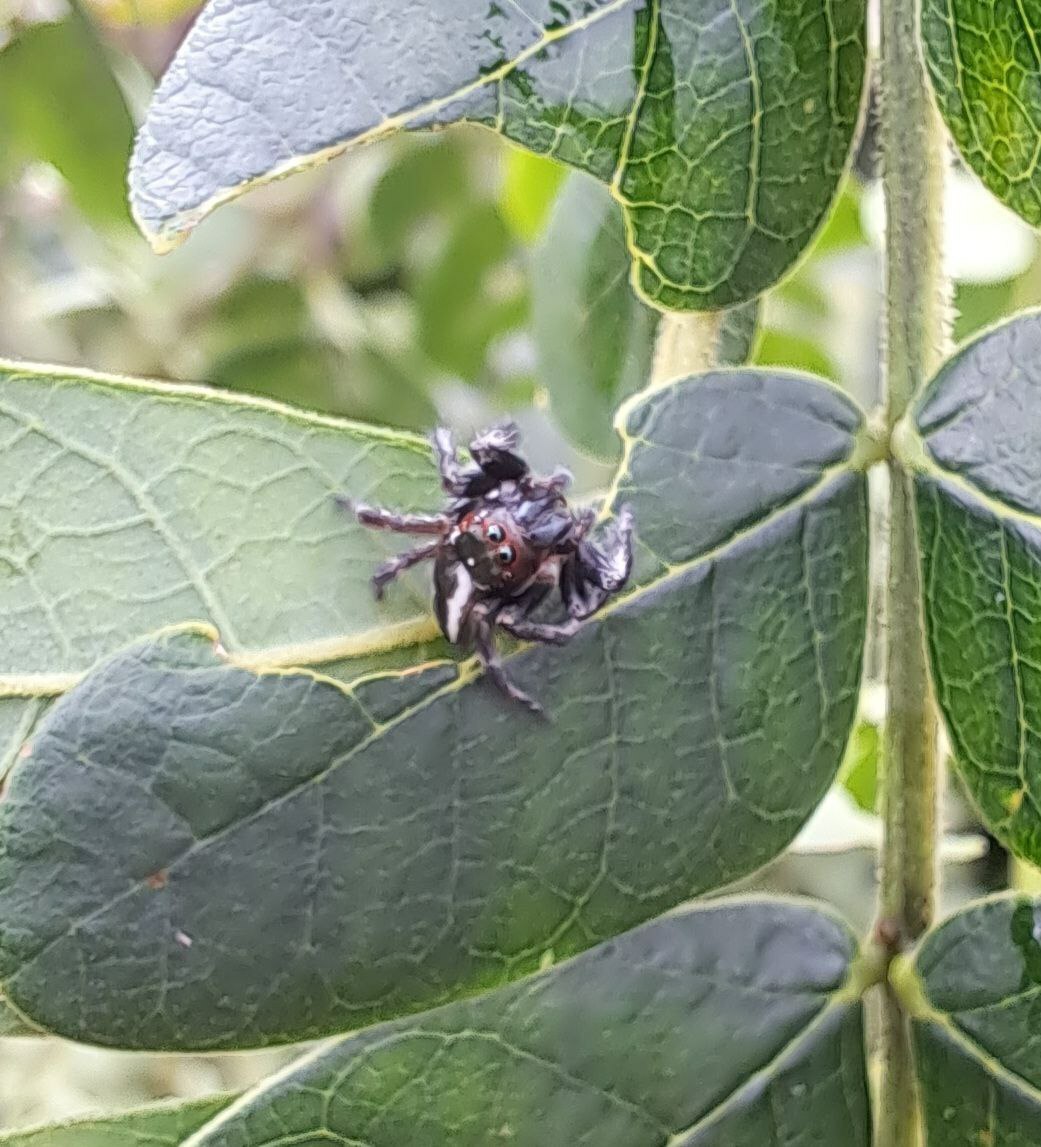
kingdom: Animalia
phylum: Arthropoda
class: Arachnida
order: Araneae
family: Salticidae
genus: Carrhotus
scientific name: Carrhotus viduus
